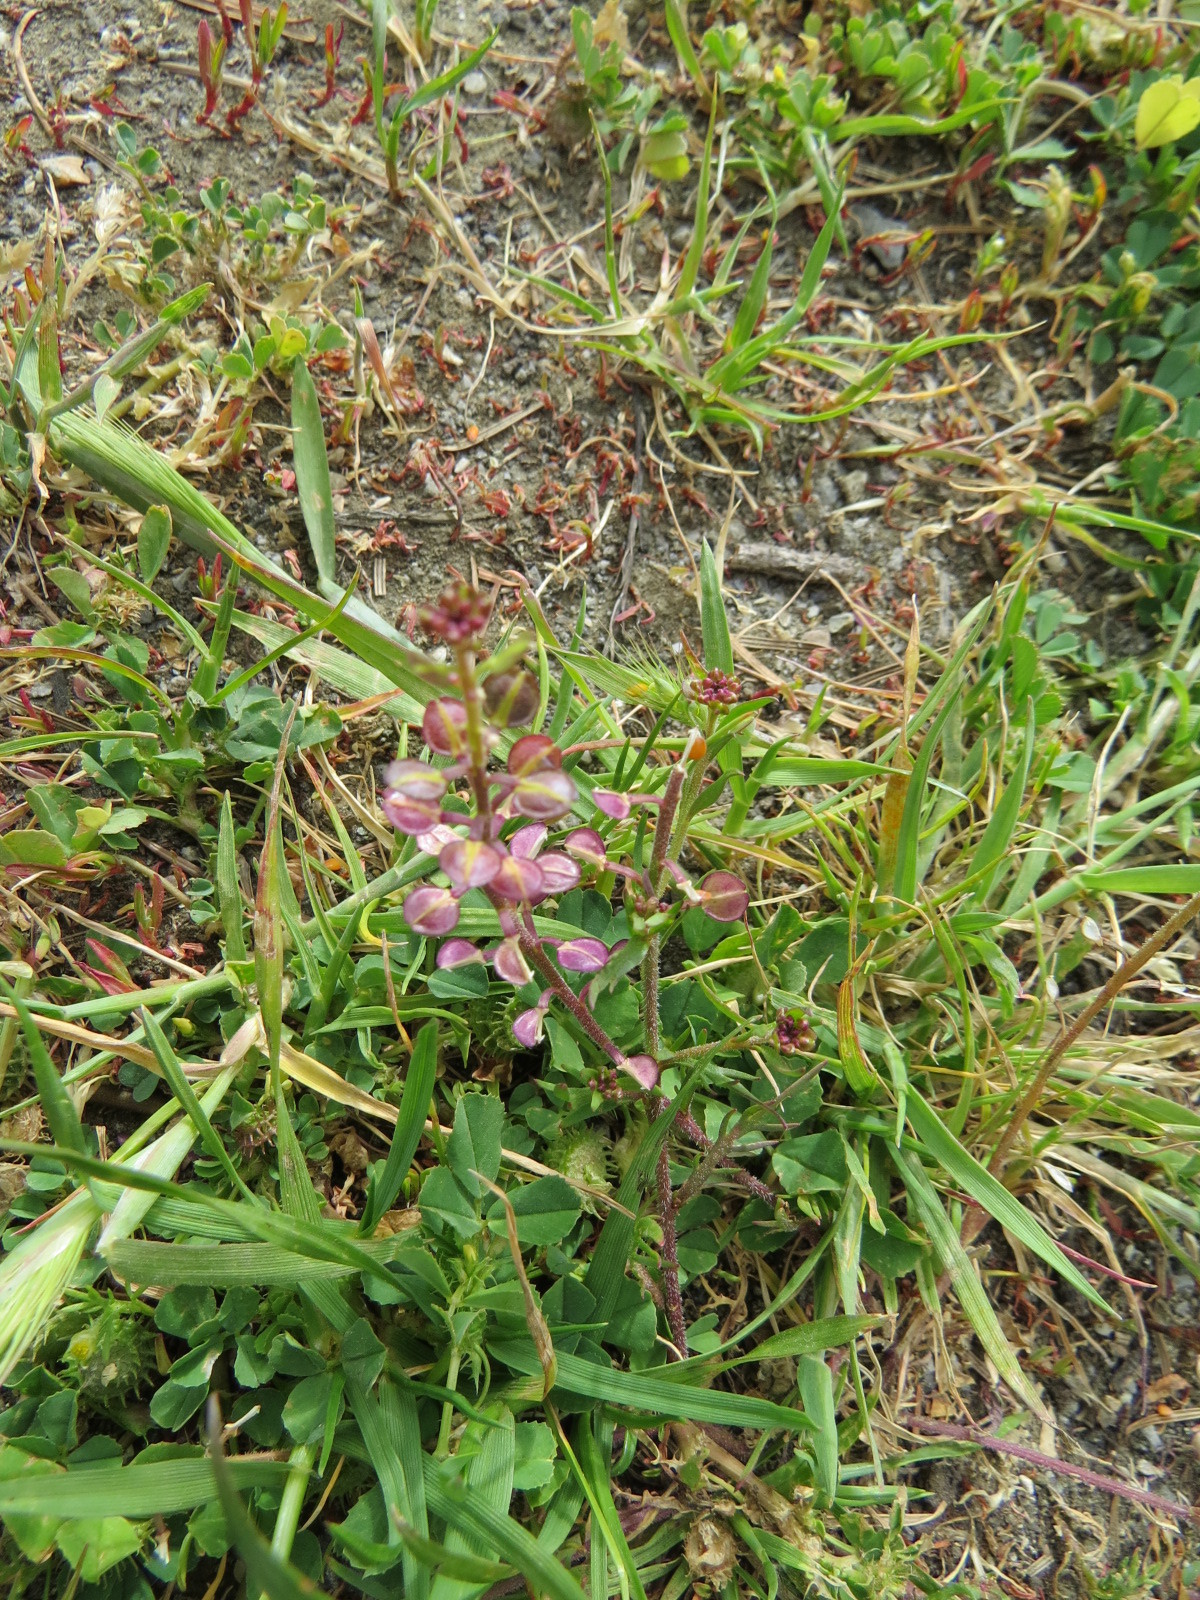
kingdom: Plantae
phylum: Tracheophyta
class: Magnoliopsida
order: Brassicales
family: Brassicaceae
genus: Lepidium
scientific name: Lepidium nitidum
